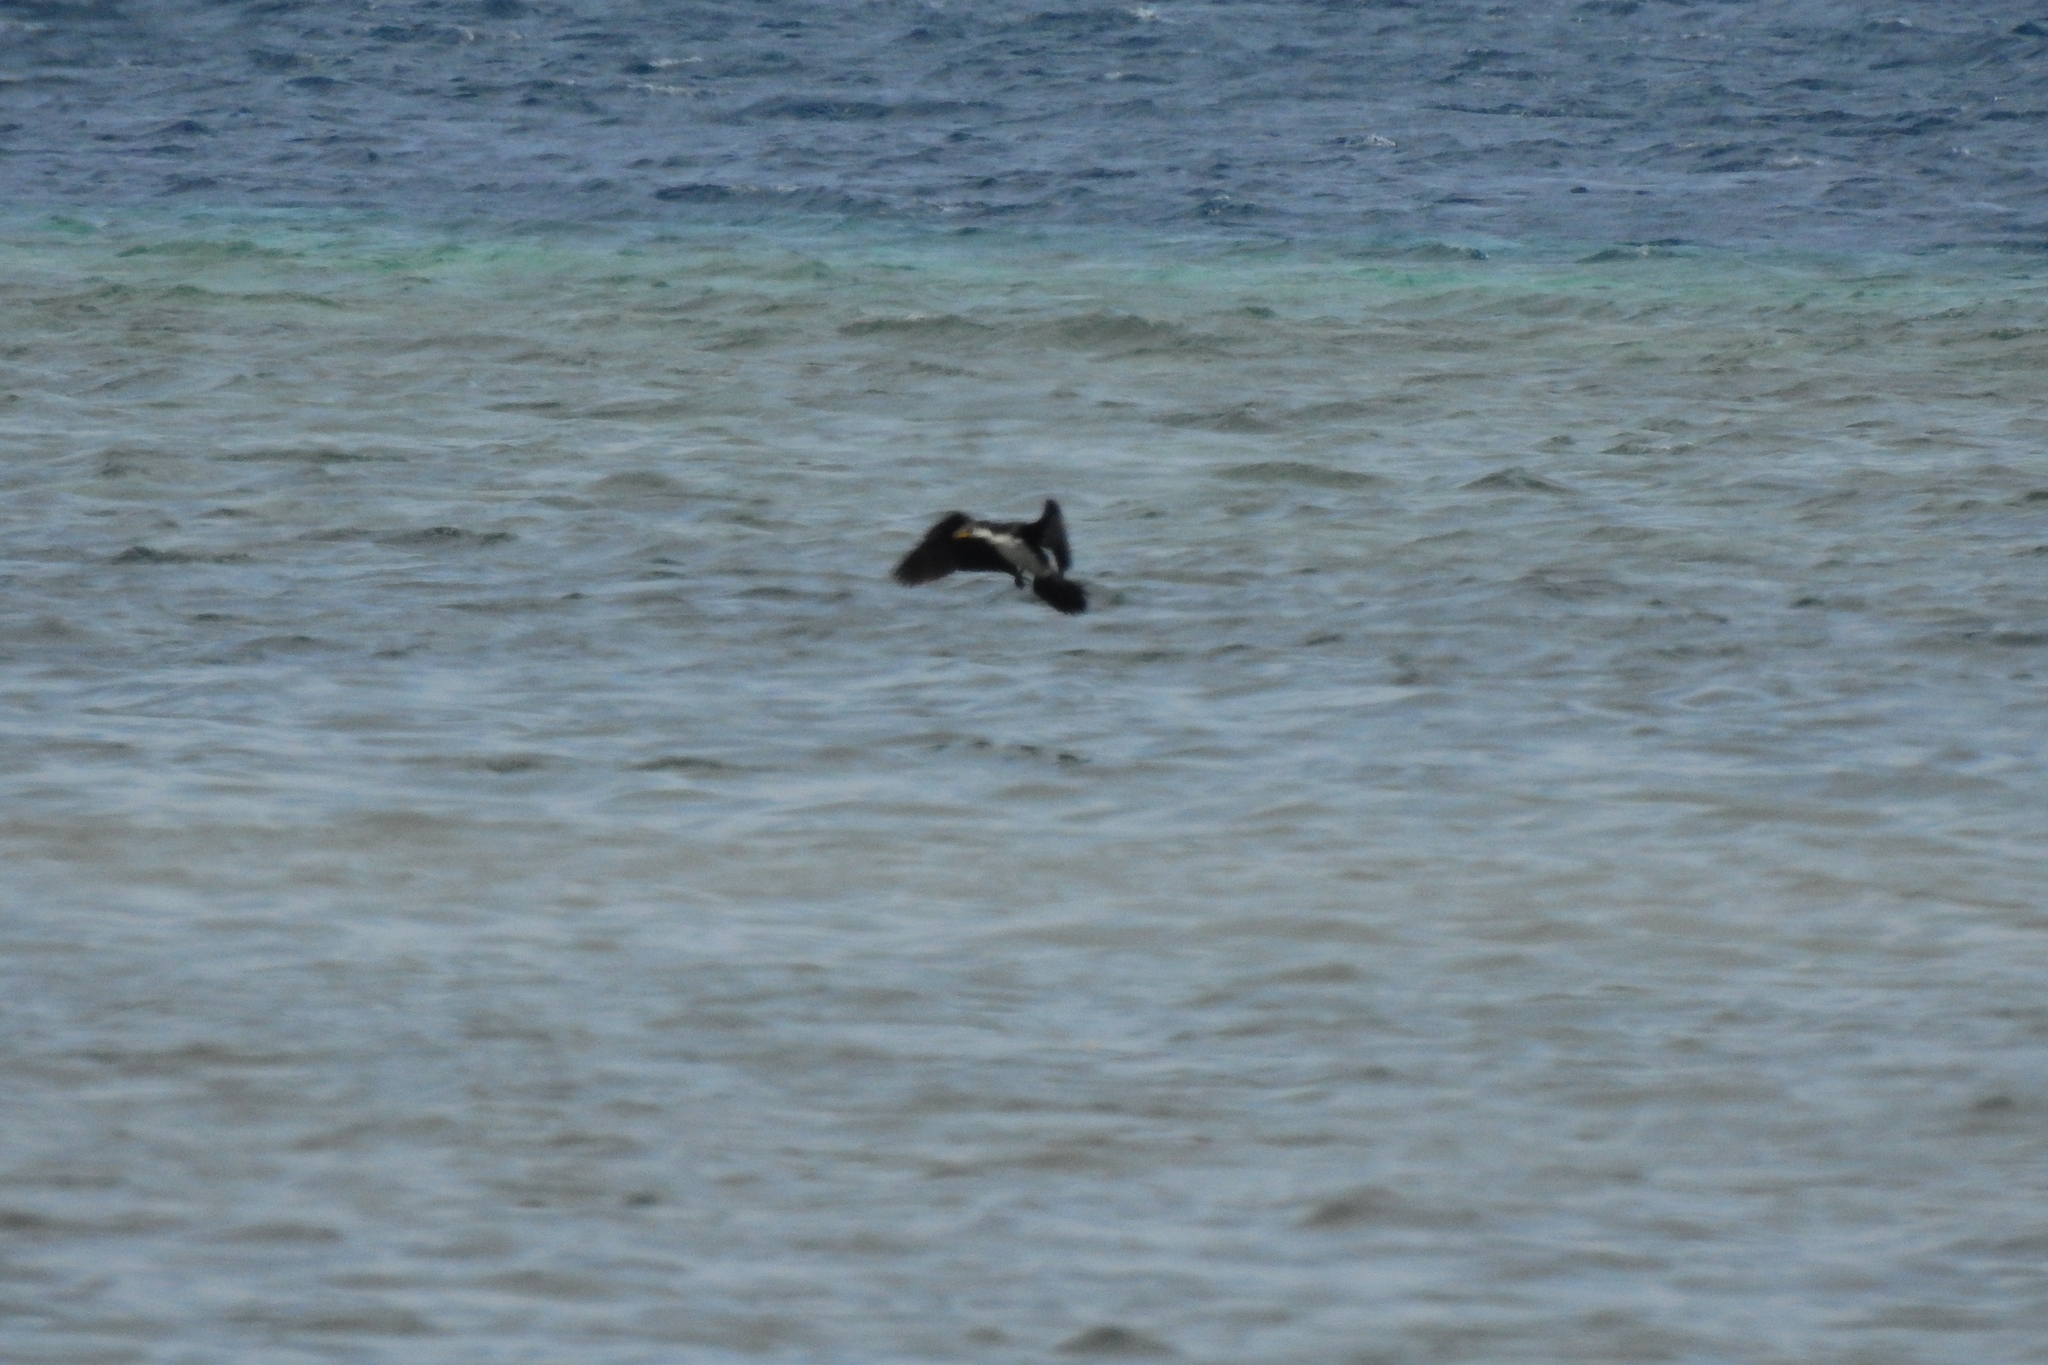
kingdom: Animalia
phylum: Chordata
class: Aves
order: Suliformes
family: Phalacrocoracidae
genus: Microcarbo
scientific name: Microcarbo melanoleucos
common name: Little pied cormorant
